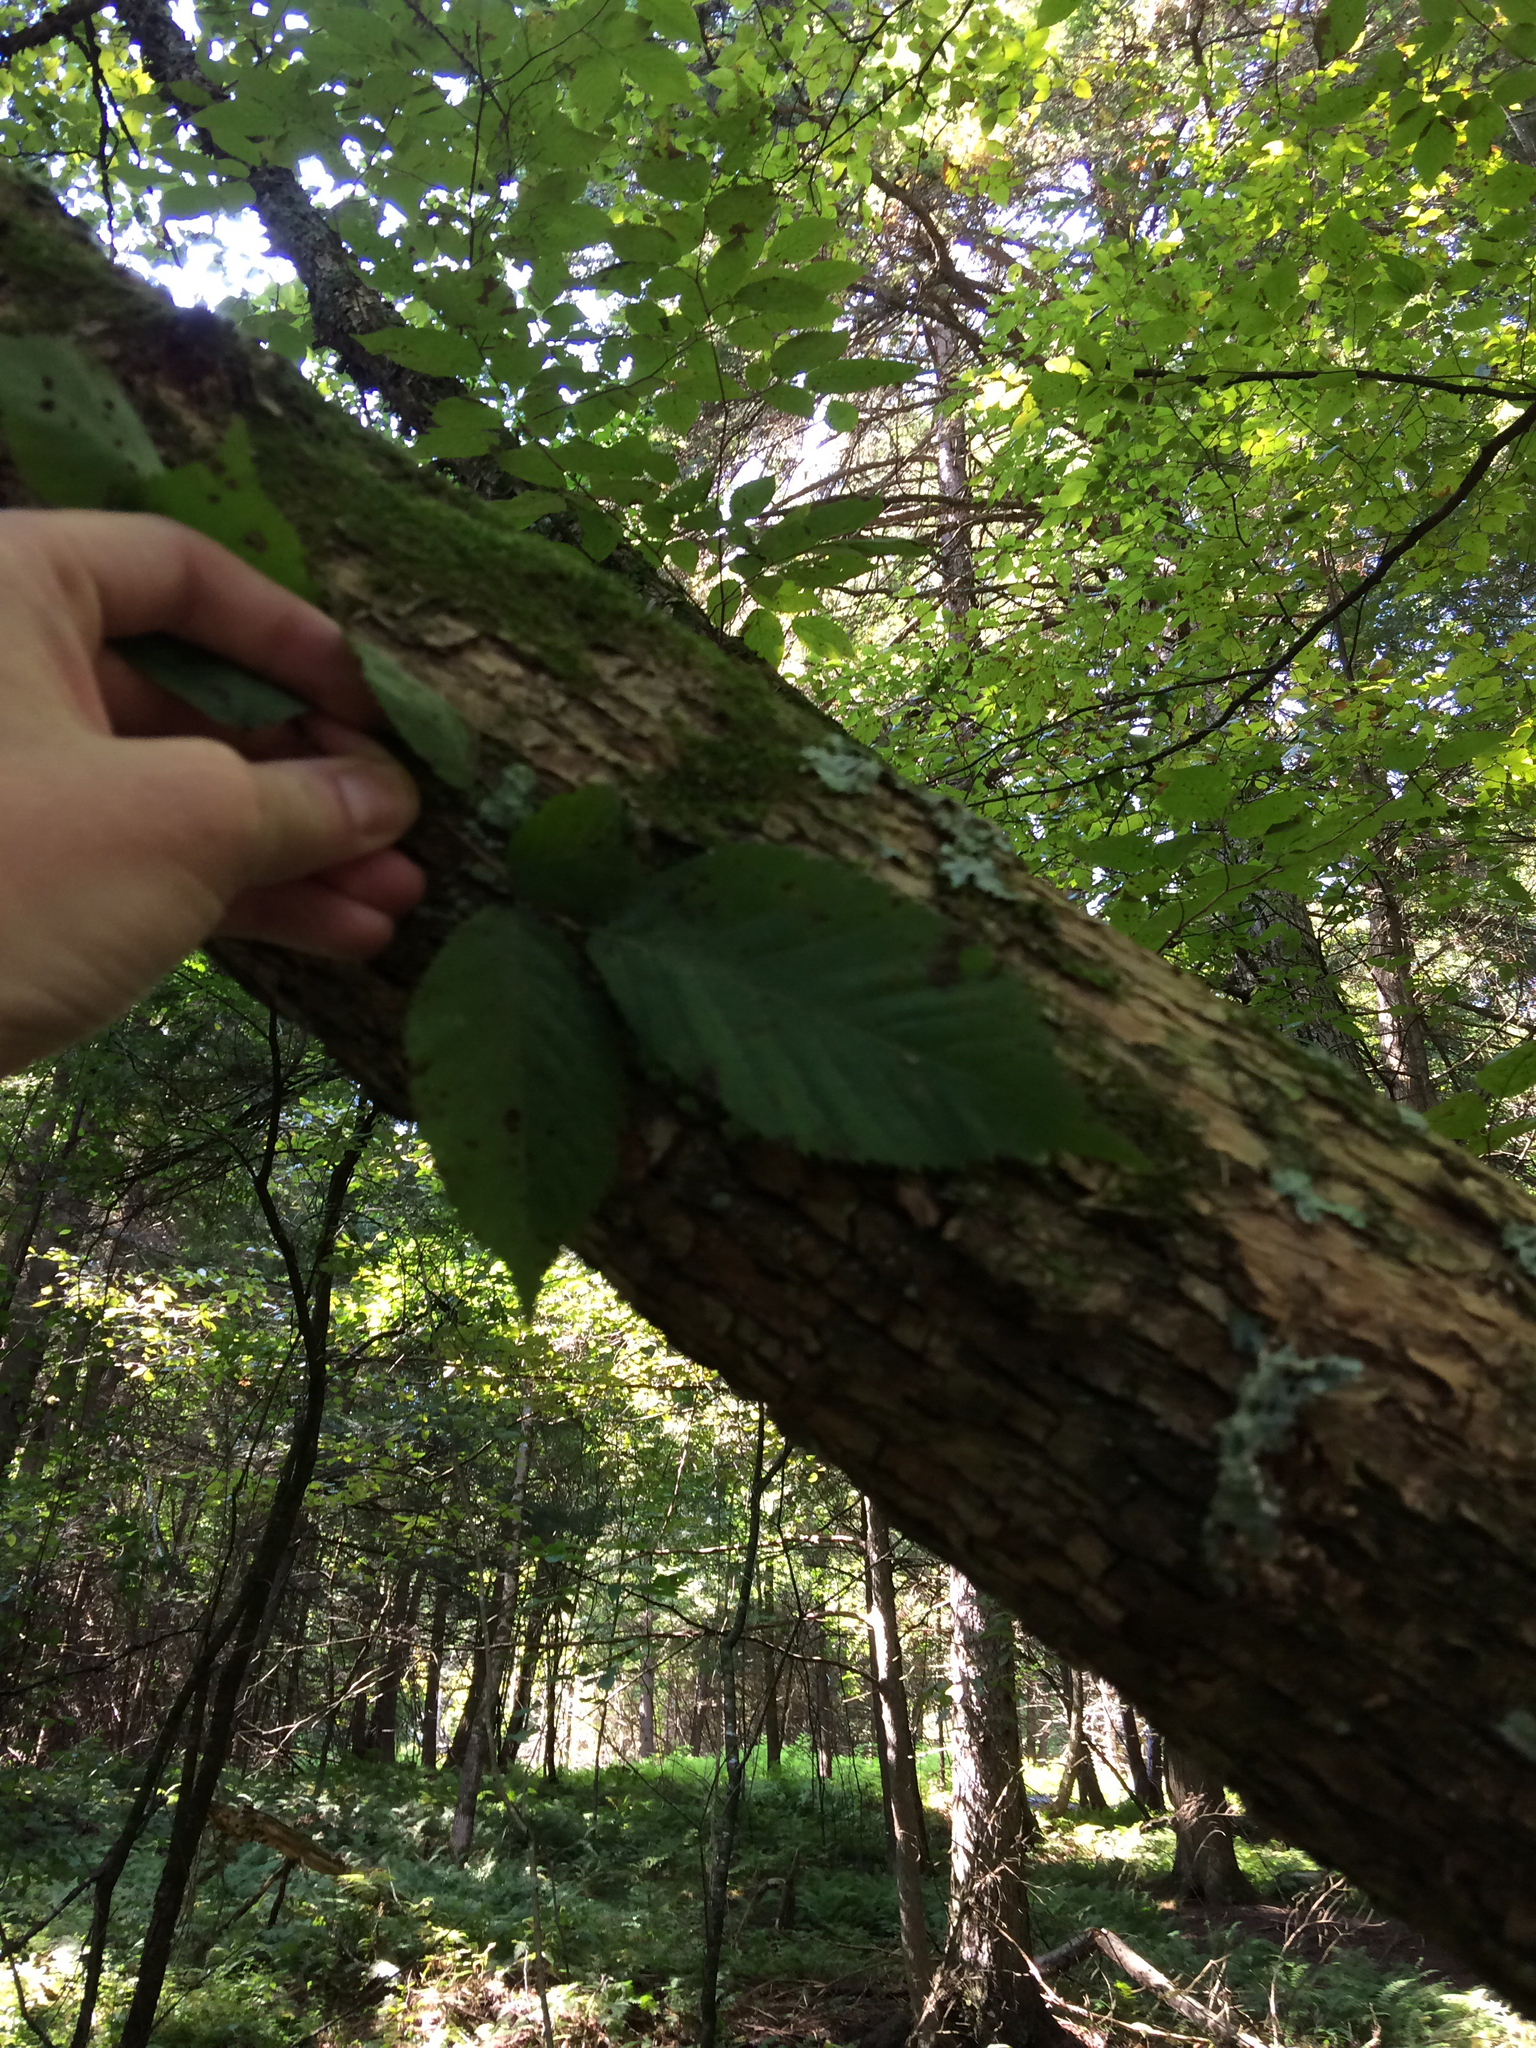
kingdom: Plantae
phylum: Tracheophyta
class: Magnoliopsida
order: Fagales
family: Betulaceae
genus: Ostrya
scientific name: Ostrya virginiana
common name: Ironwood
